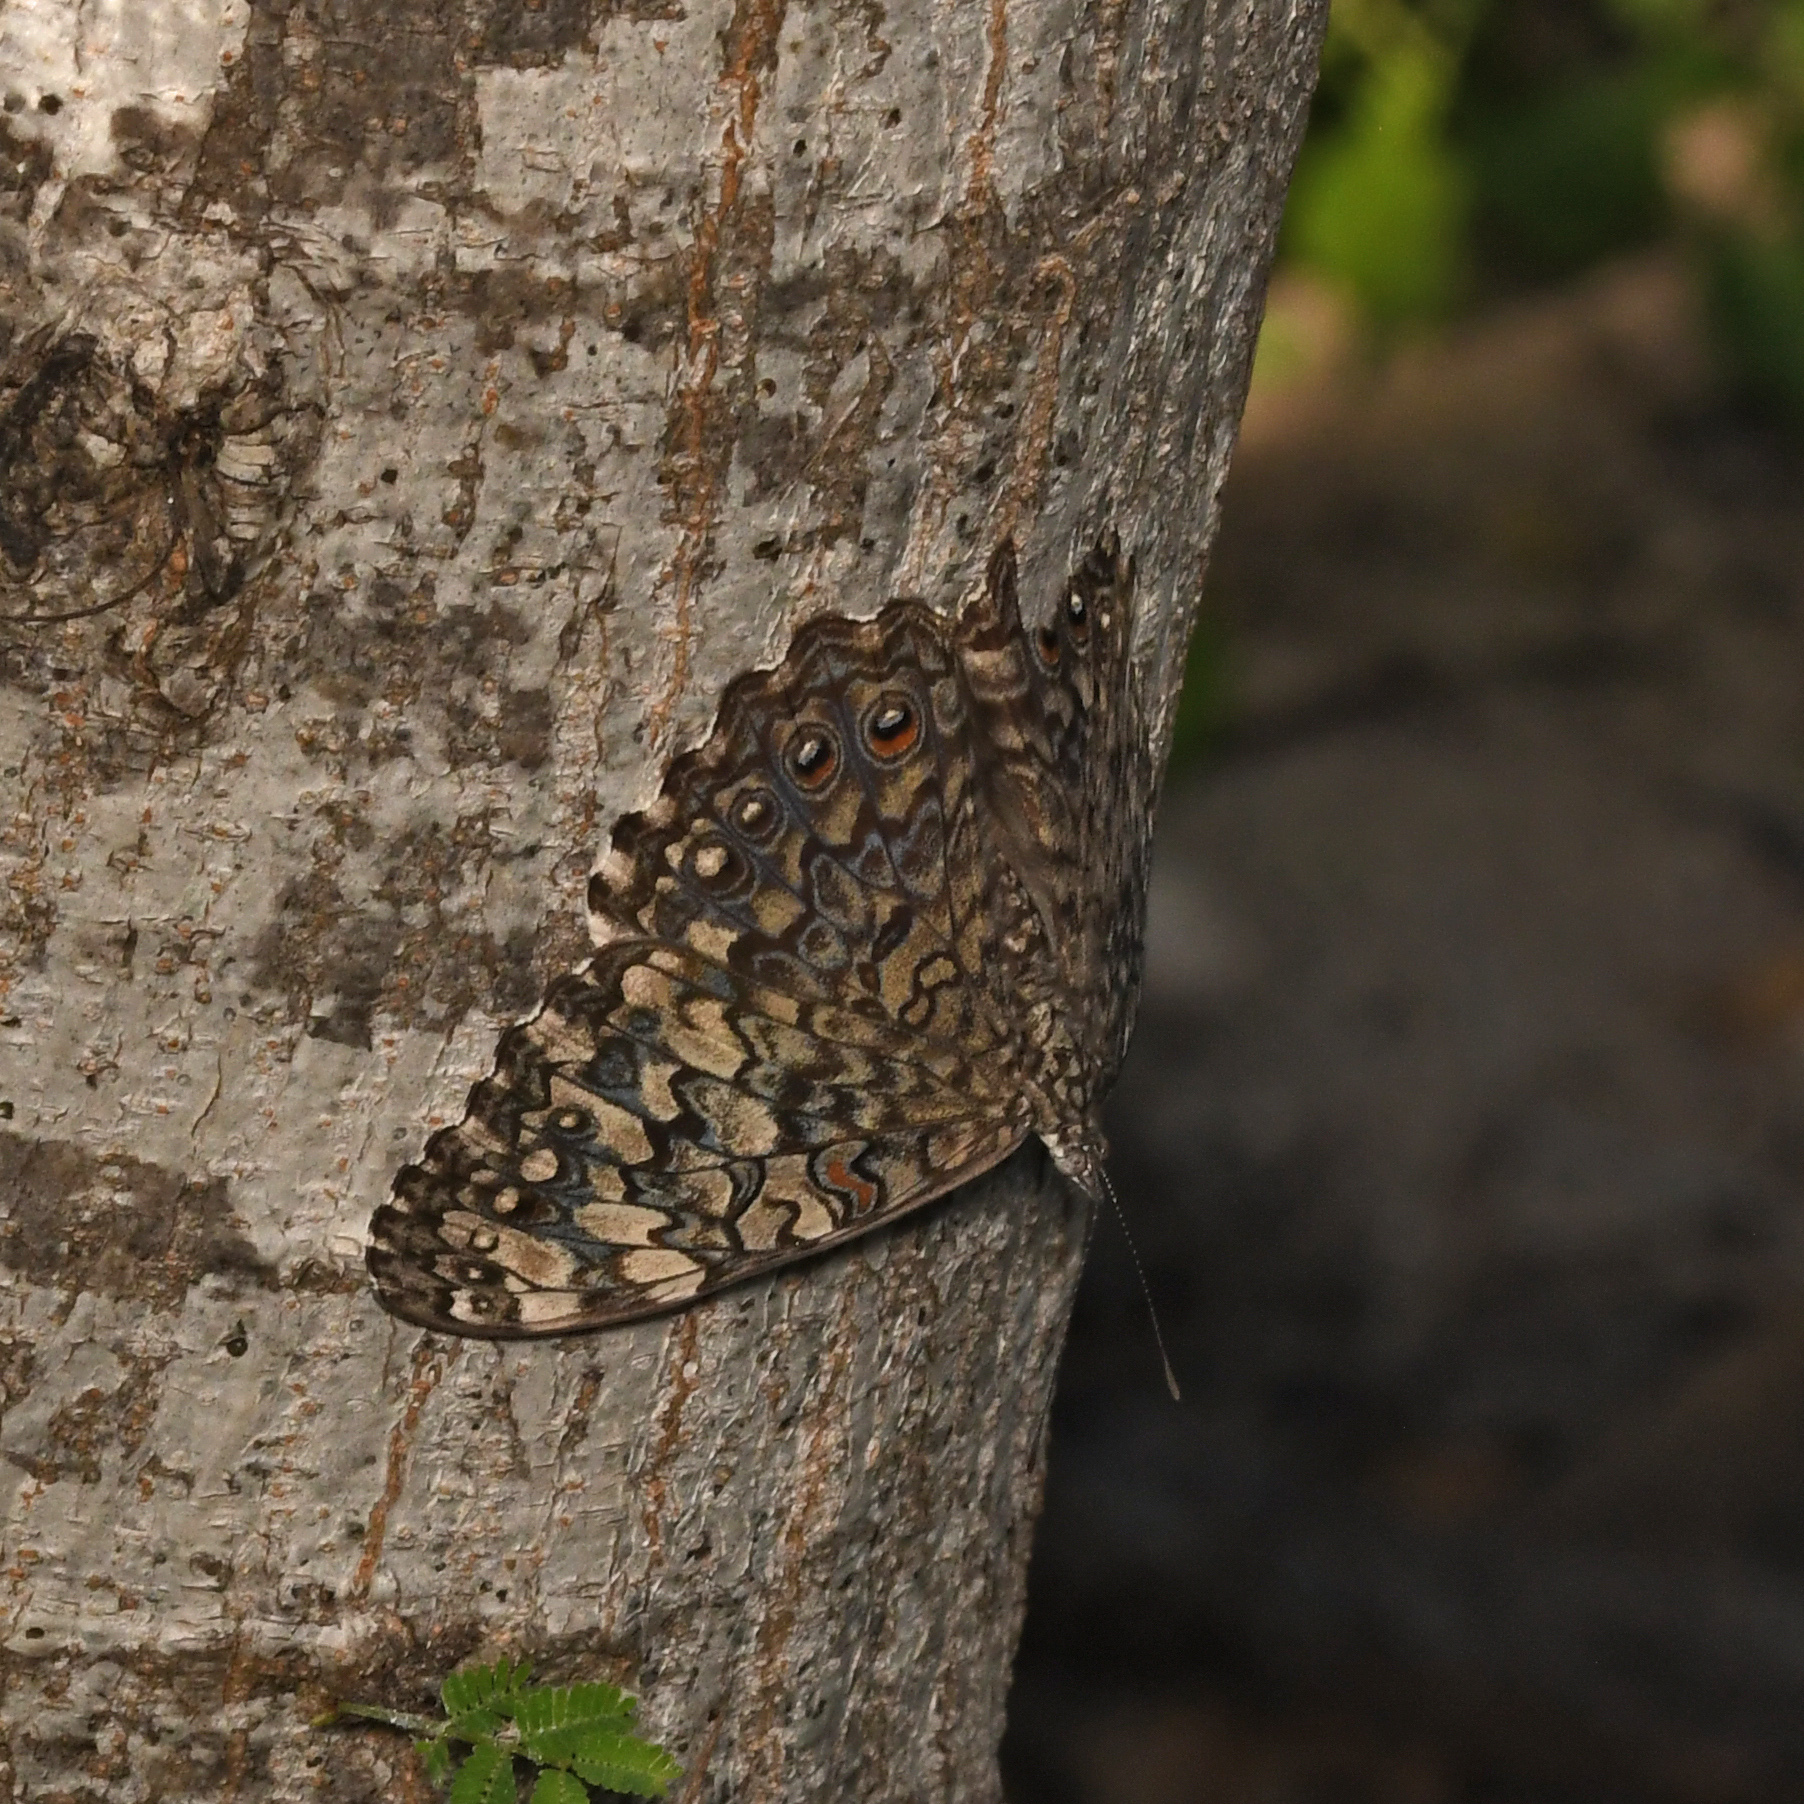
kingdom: Animalia
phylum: Arthropoda
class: Insecta
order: Lepidoptera
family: Nymphalidae
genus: Hamadryas
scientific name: Hamadryas februa
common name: Gray cracker
